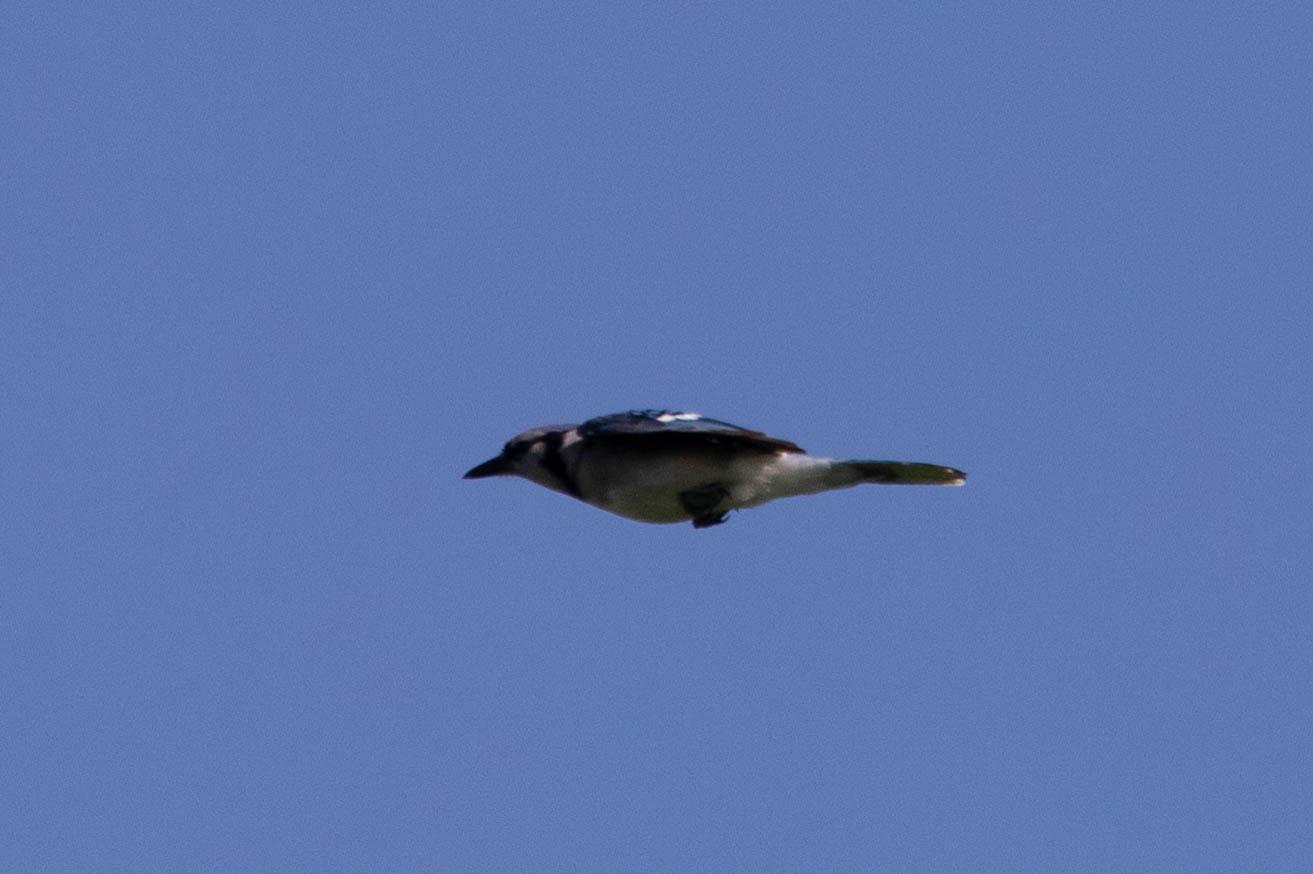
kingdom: Animalia
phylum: Chordata
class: Aves
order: Passeriformes
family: Corvidae
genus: Cyanocitta
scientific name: Cyanocitta cristata
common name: Blue jay
